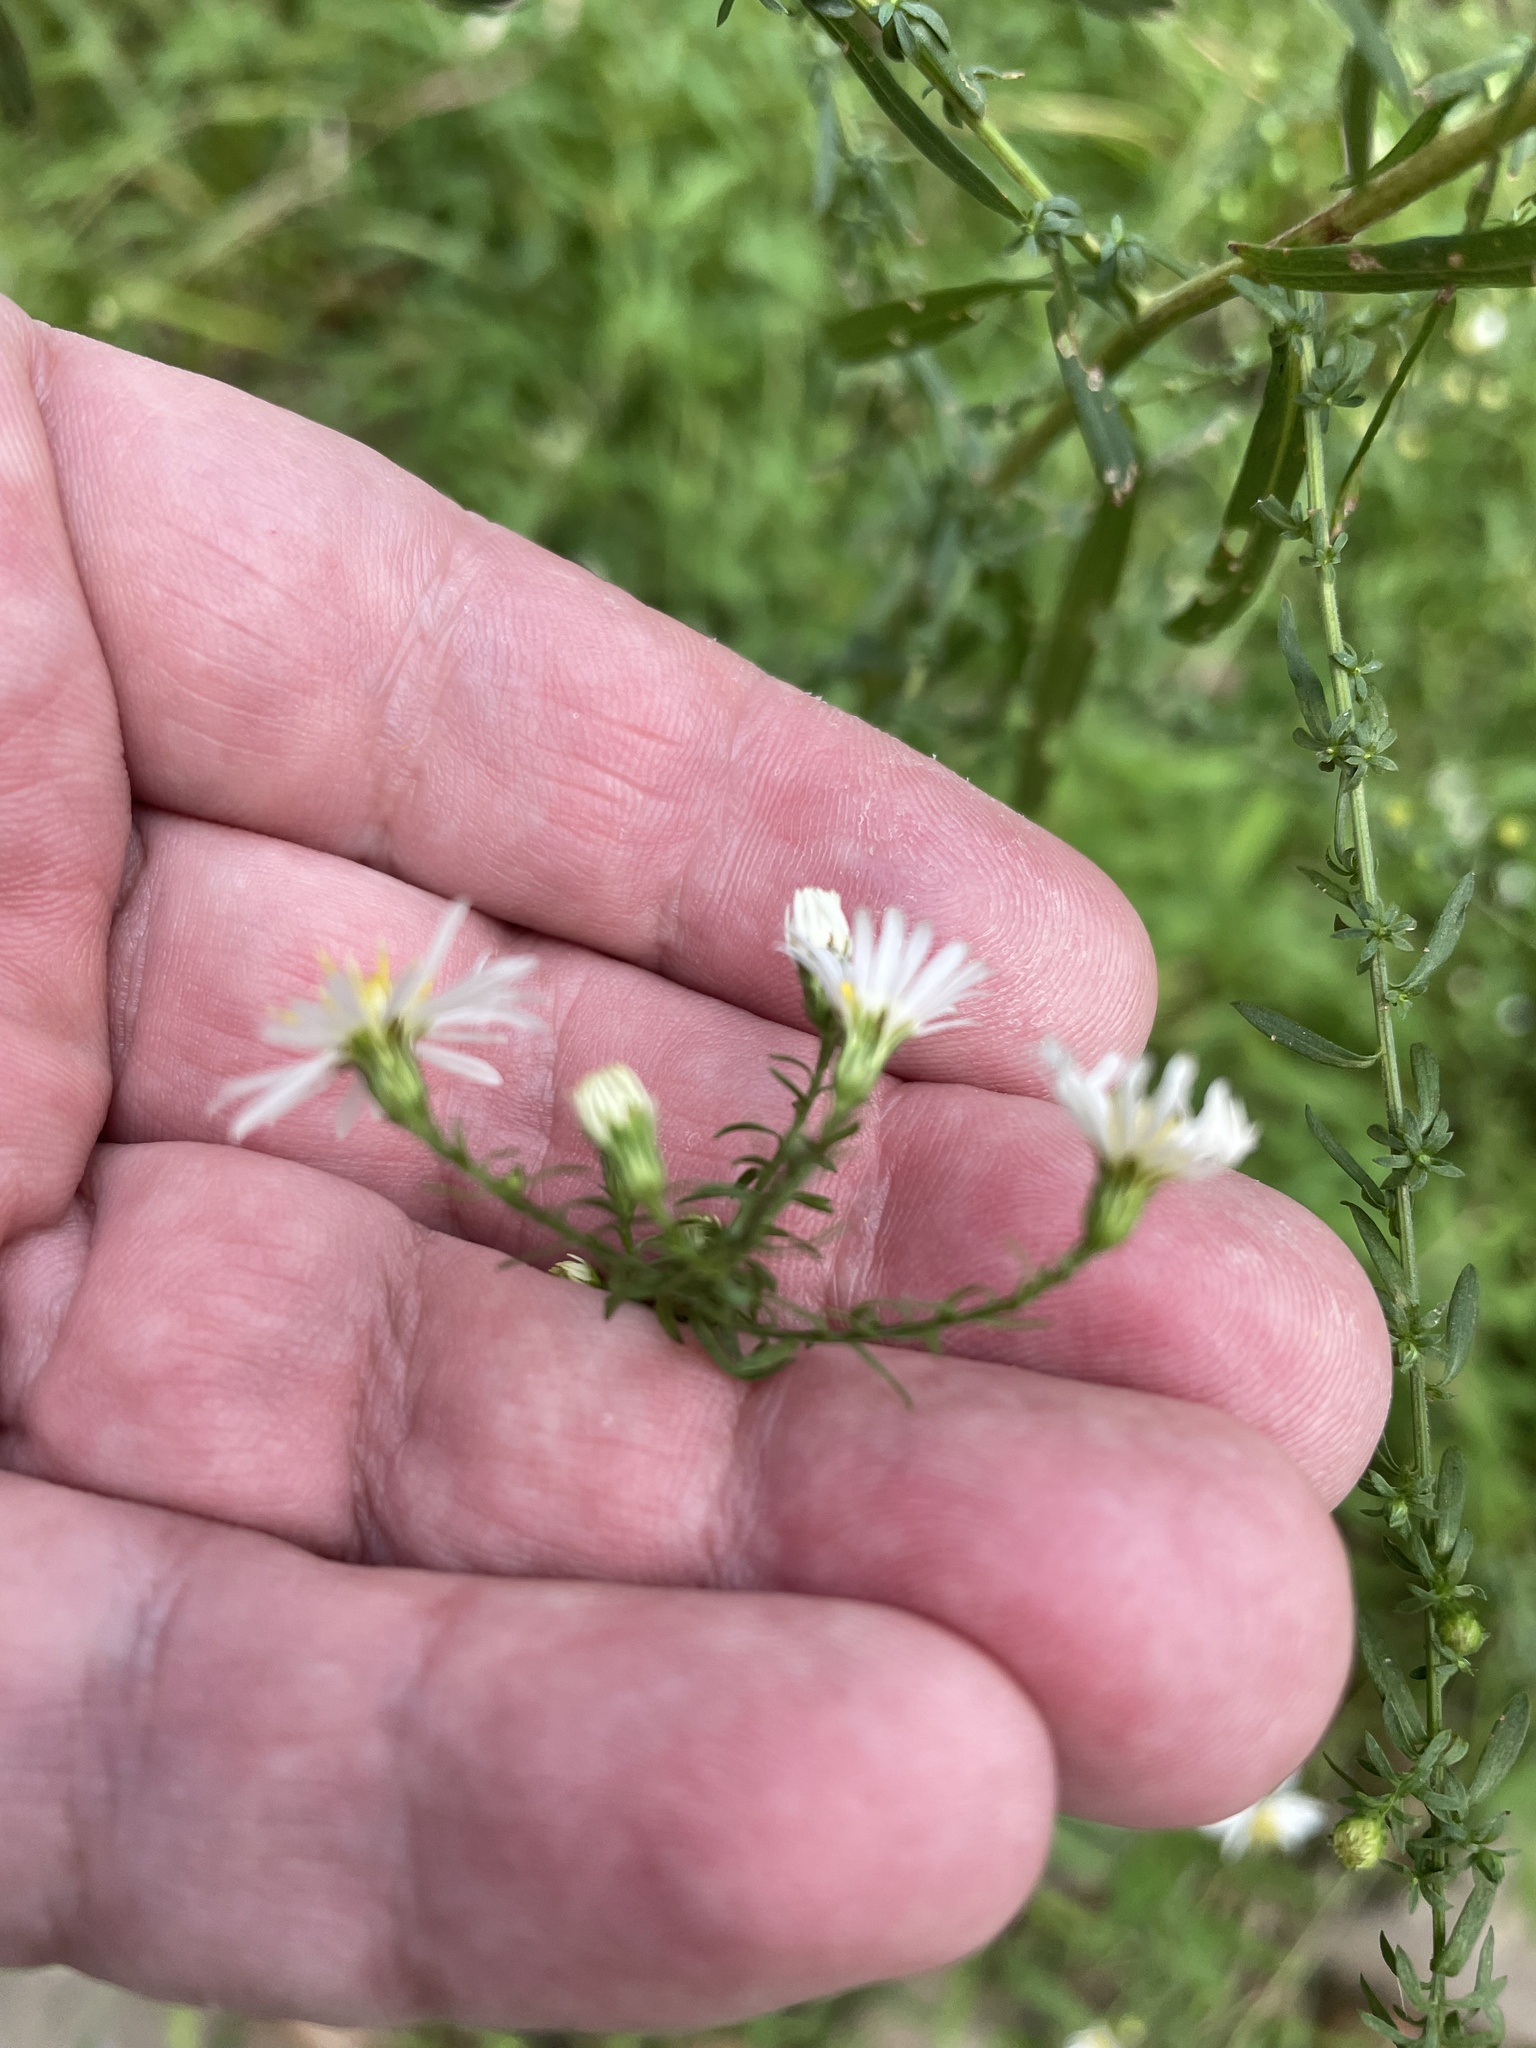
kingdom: Plantae
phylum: Tracheophyta
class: Magnoliopsida
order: Asterales
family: Asteraceae
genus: Symphyotrichum
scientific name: Symphyotrichum dumosum
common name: Bushy aster
